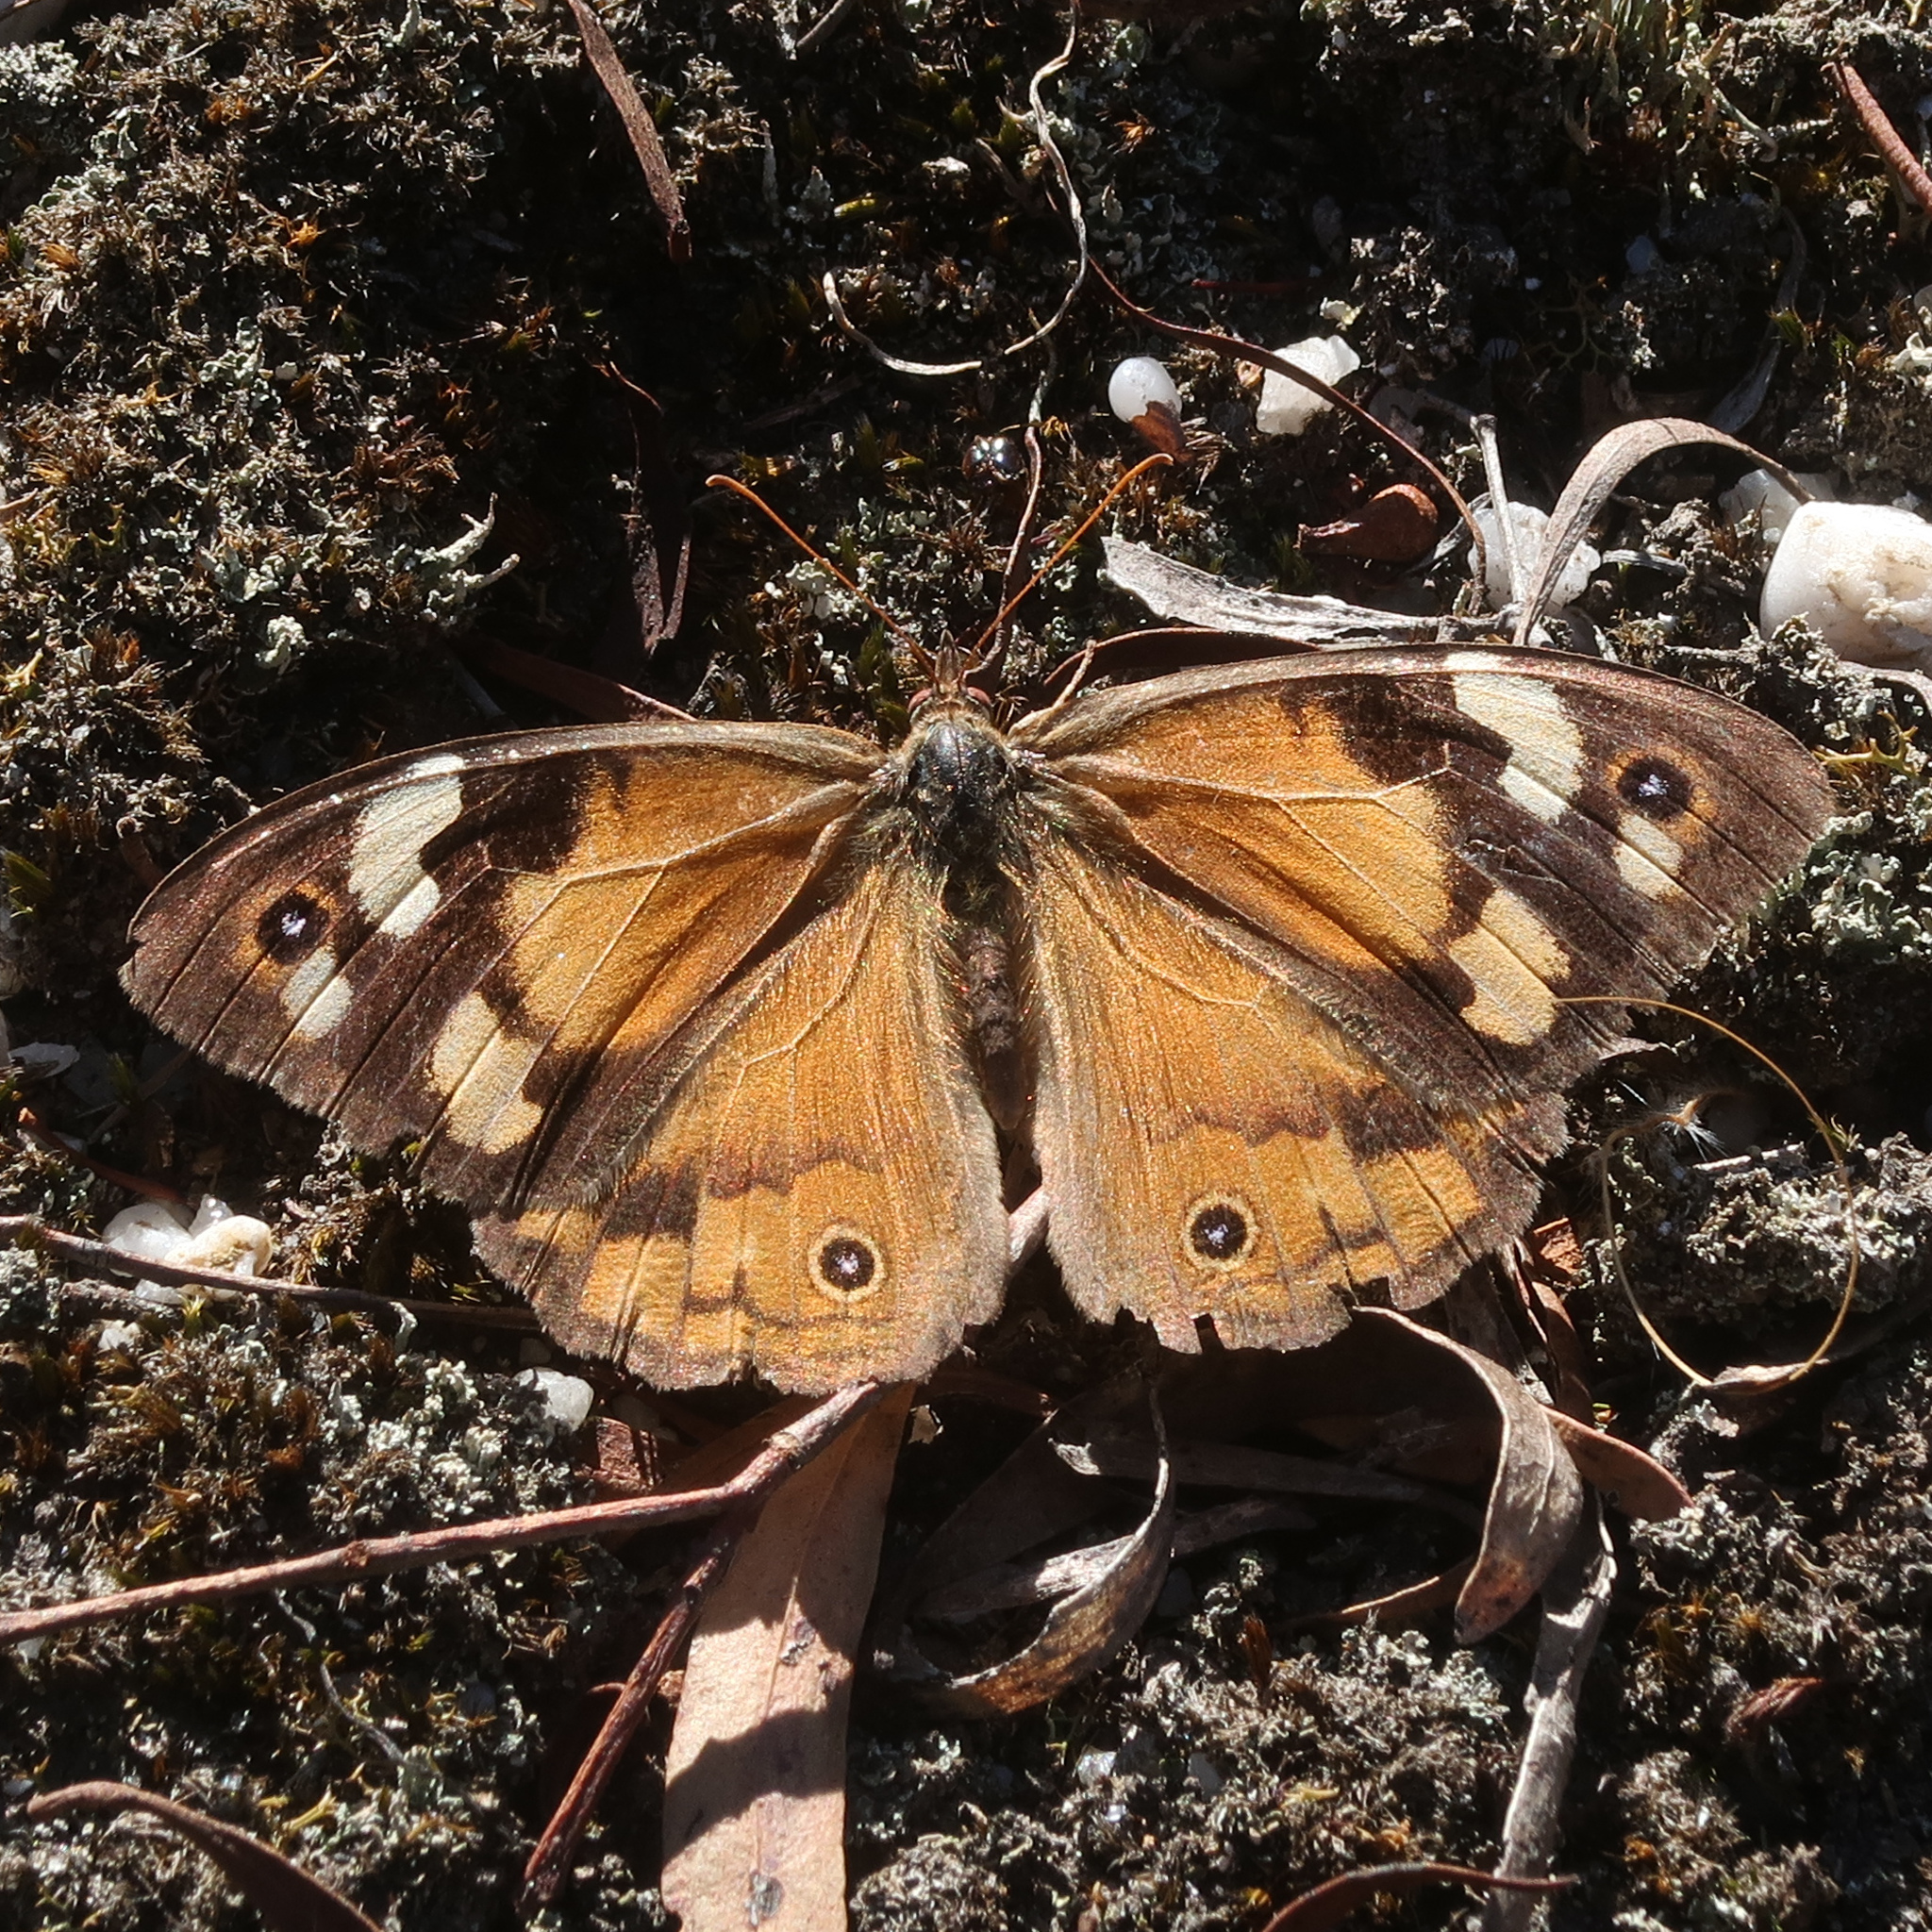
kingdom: Animalia
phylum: Arthropoda
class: Insecta
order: Lepidoptera
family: Nymphalidae
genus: Heteronympha
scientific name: Heteronympha merope
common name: Common brown
